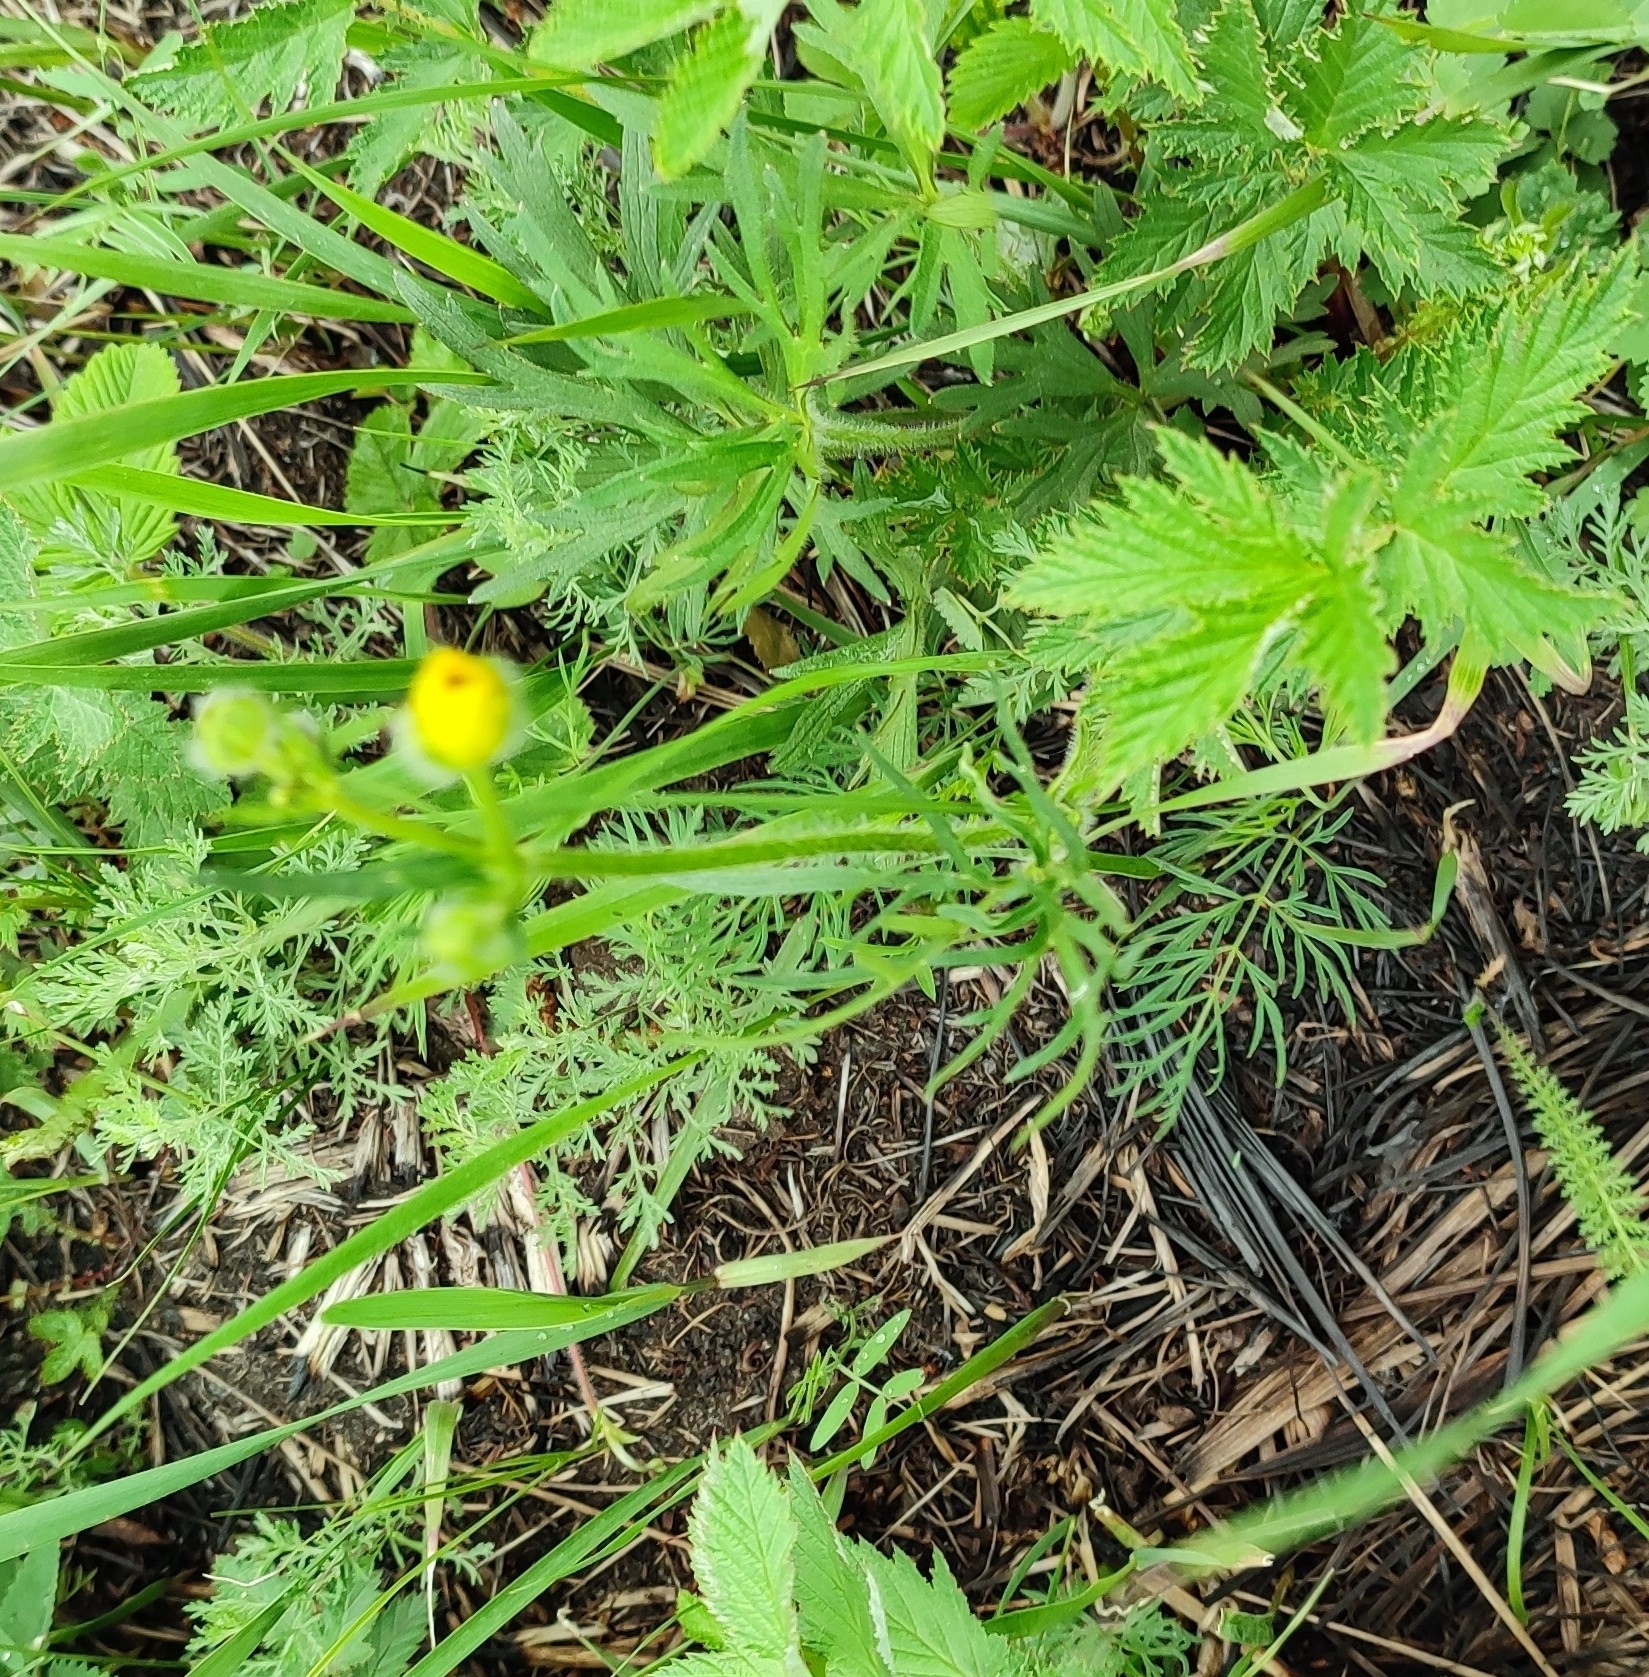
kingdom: Plantae
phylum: Tracheophyta
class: Magnoliopsida
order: Ranunculales
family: Ranunculaceae
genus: Ranunculus
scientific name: Ranunculus polyanthemos
